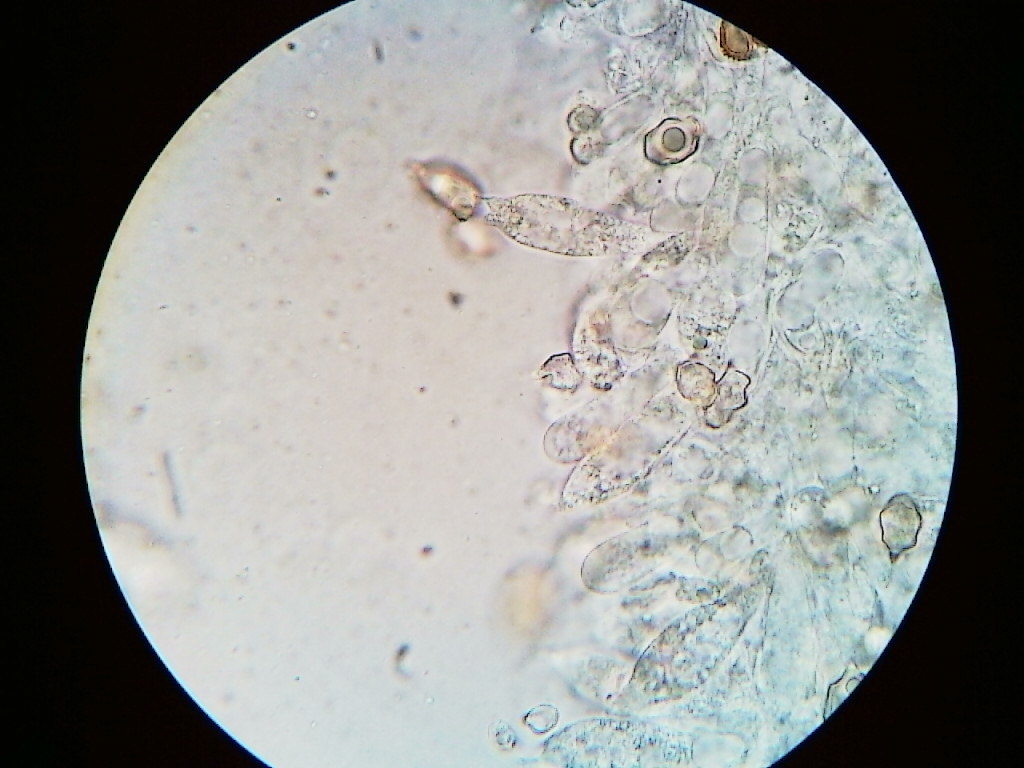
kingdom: Fungi
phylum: Basidiomycota
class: Agaricomycetes
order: Agaricales
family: Entolomataceae
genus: Entoloma
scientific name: Entoloma cetratum
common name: Honey pinkgill
